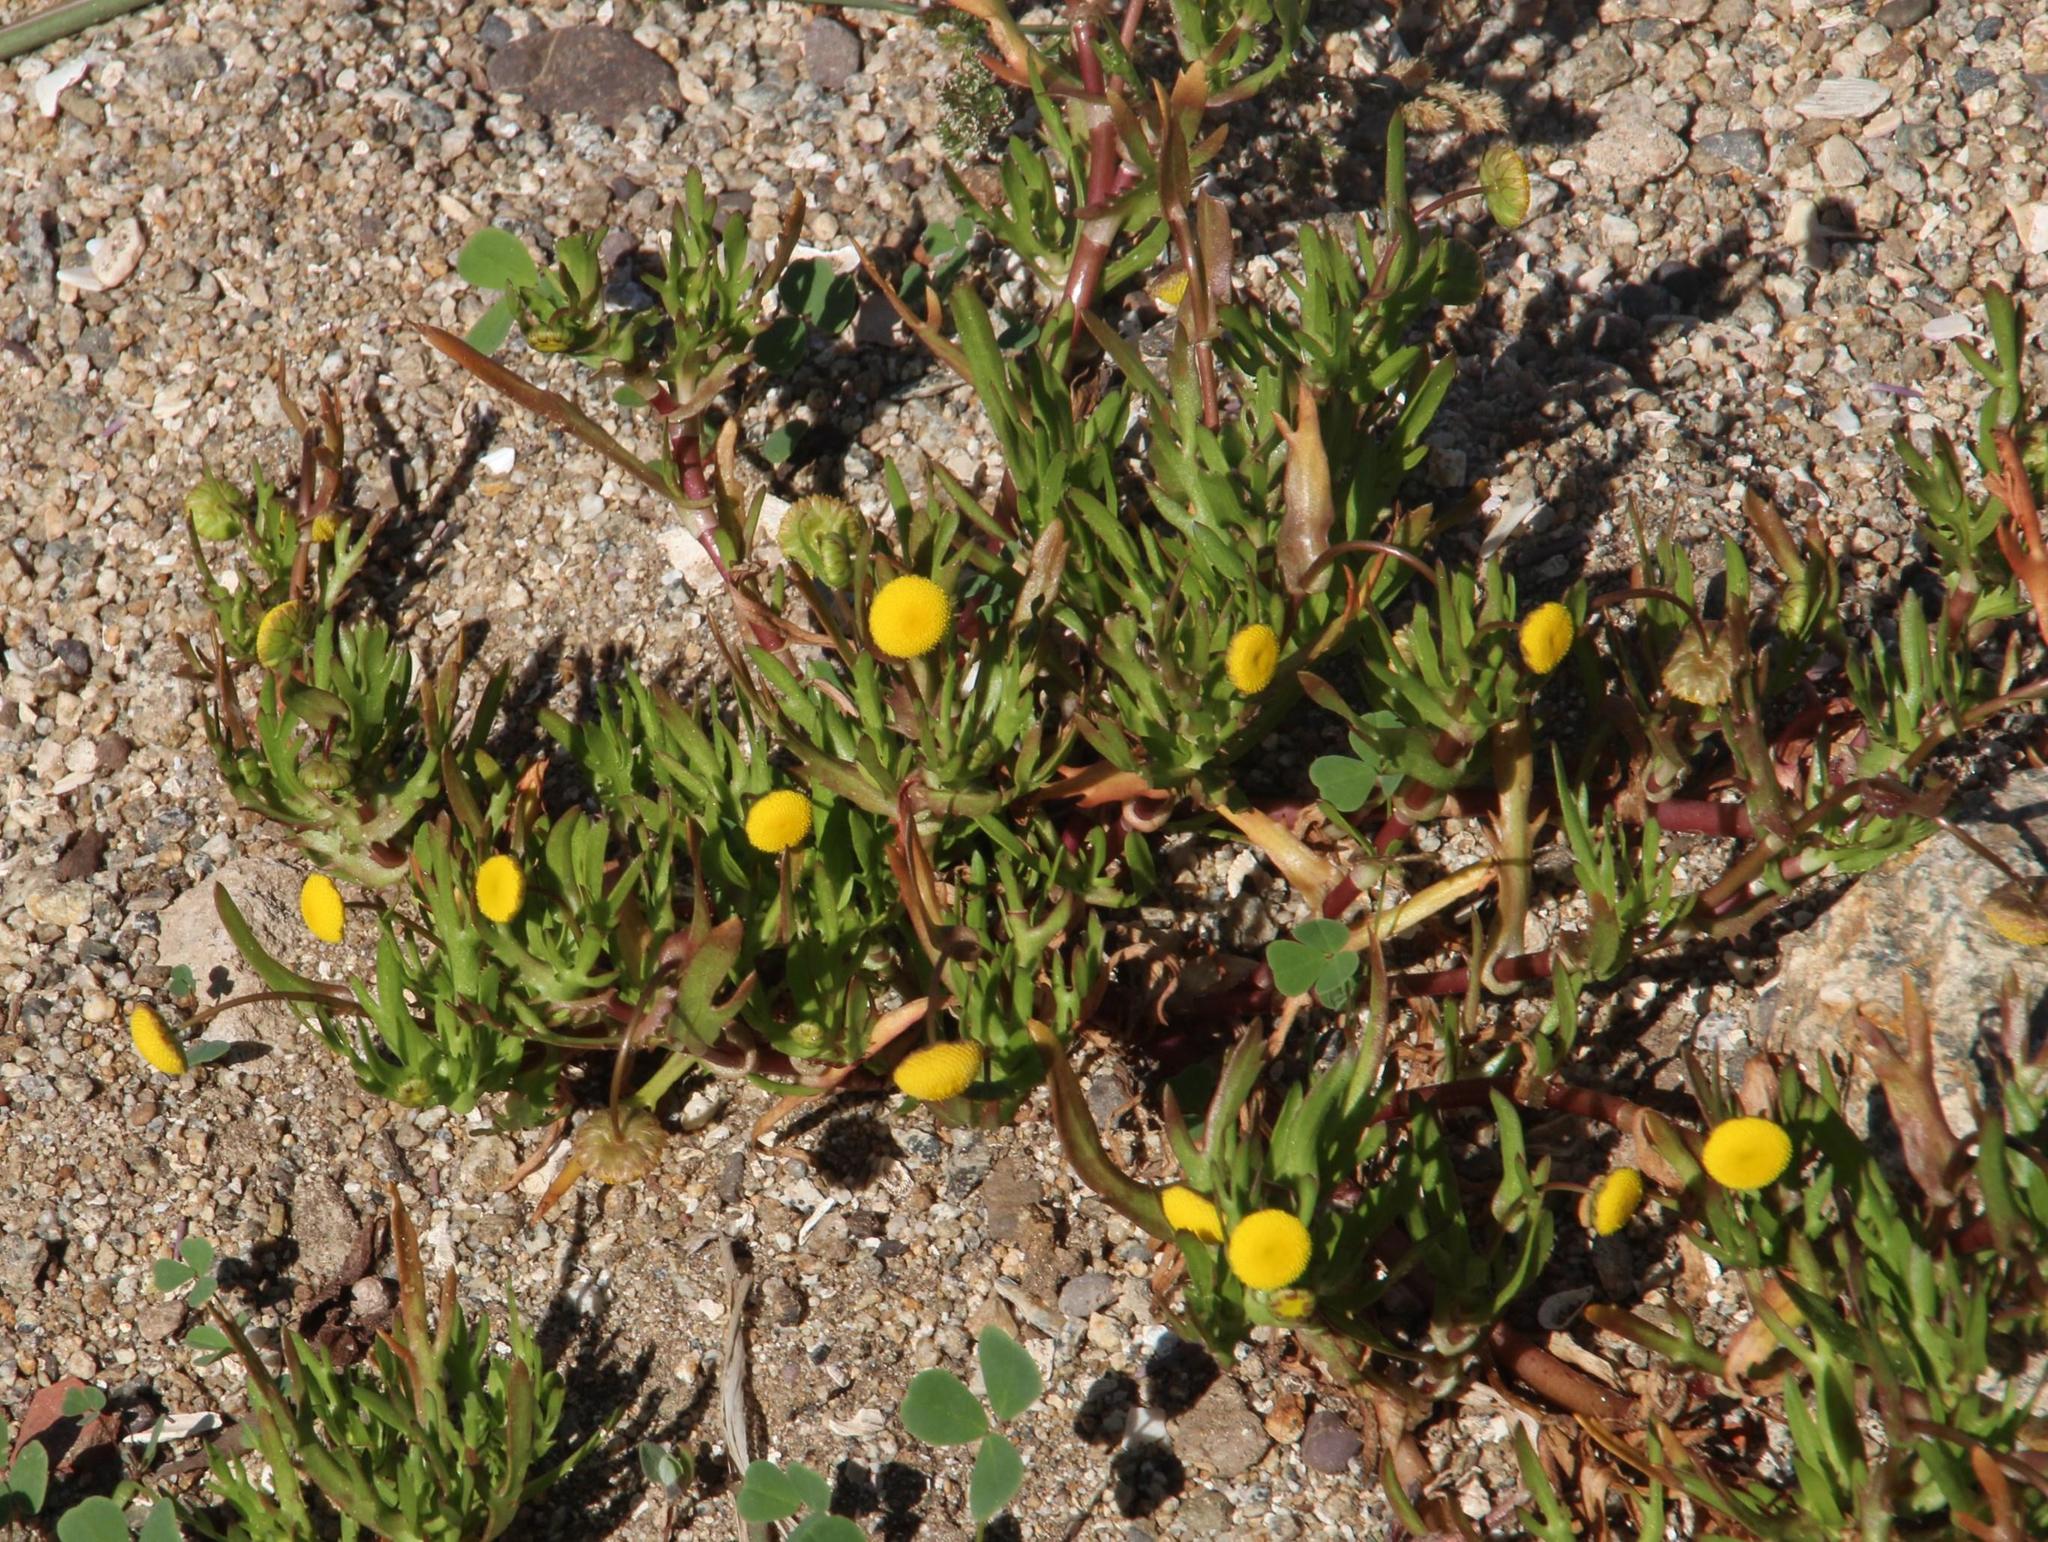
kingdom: Plantae
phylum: Tracheophyta
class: Magnoliopsida
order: Asterales
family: Asteraceae
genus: Cotula
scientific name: Cotula coronopifolia
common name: Buttonweed
